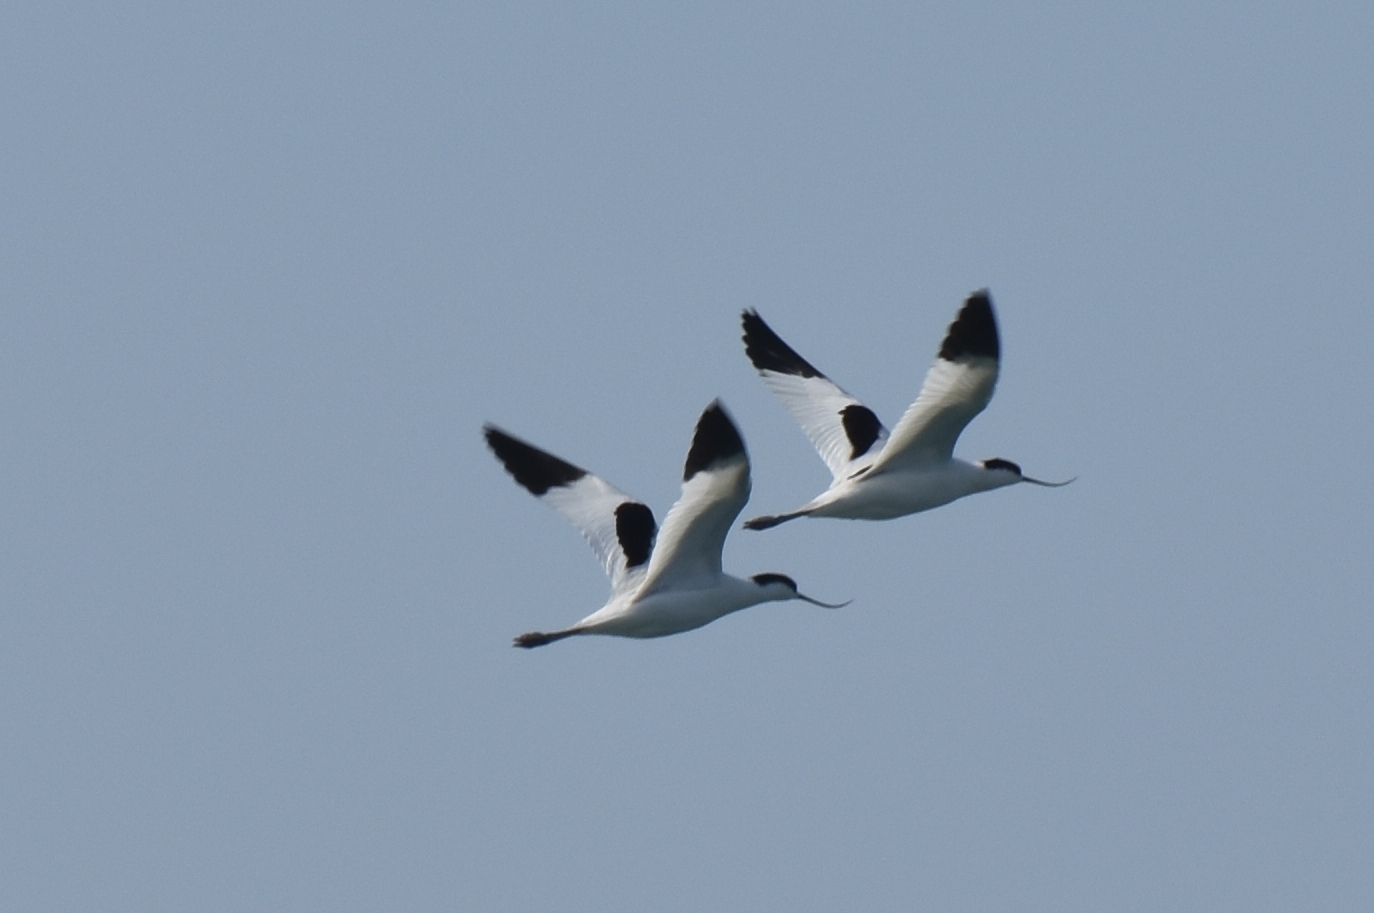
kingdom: Animalia
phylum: Chordata
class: Aves
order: Charadriiformes
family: Recurvirostridae
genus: Recurvirostra
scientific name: Recurvirostra avosetta
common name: Pied avocet
